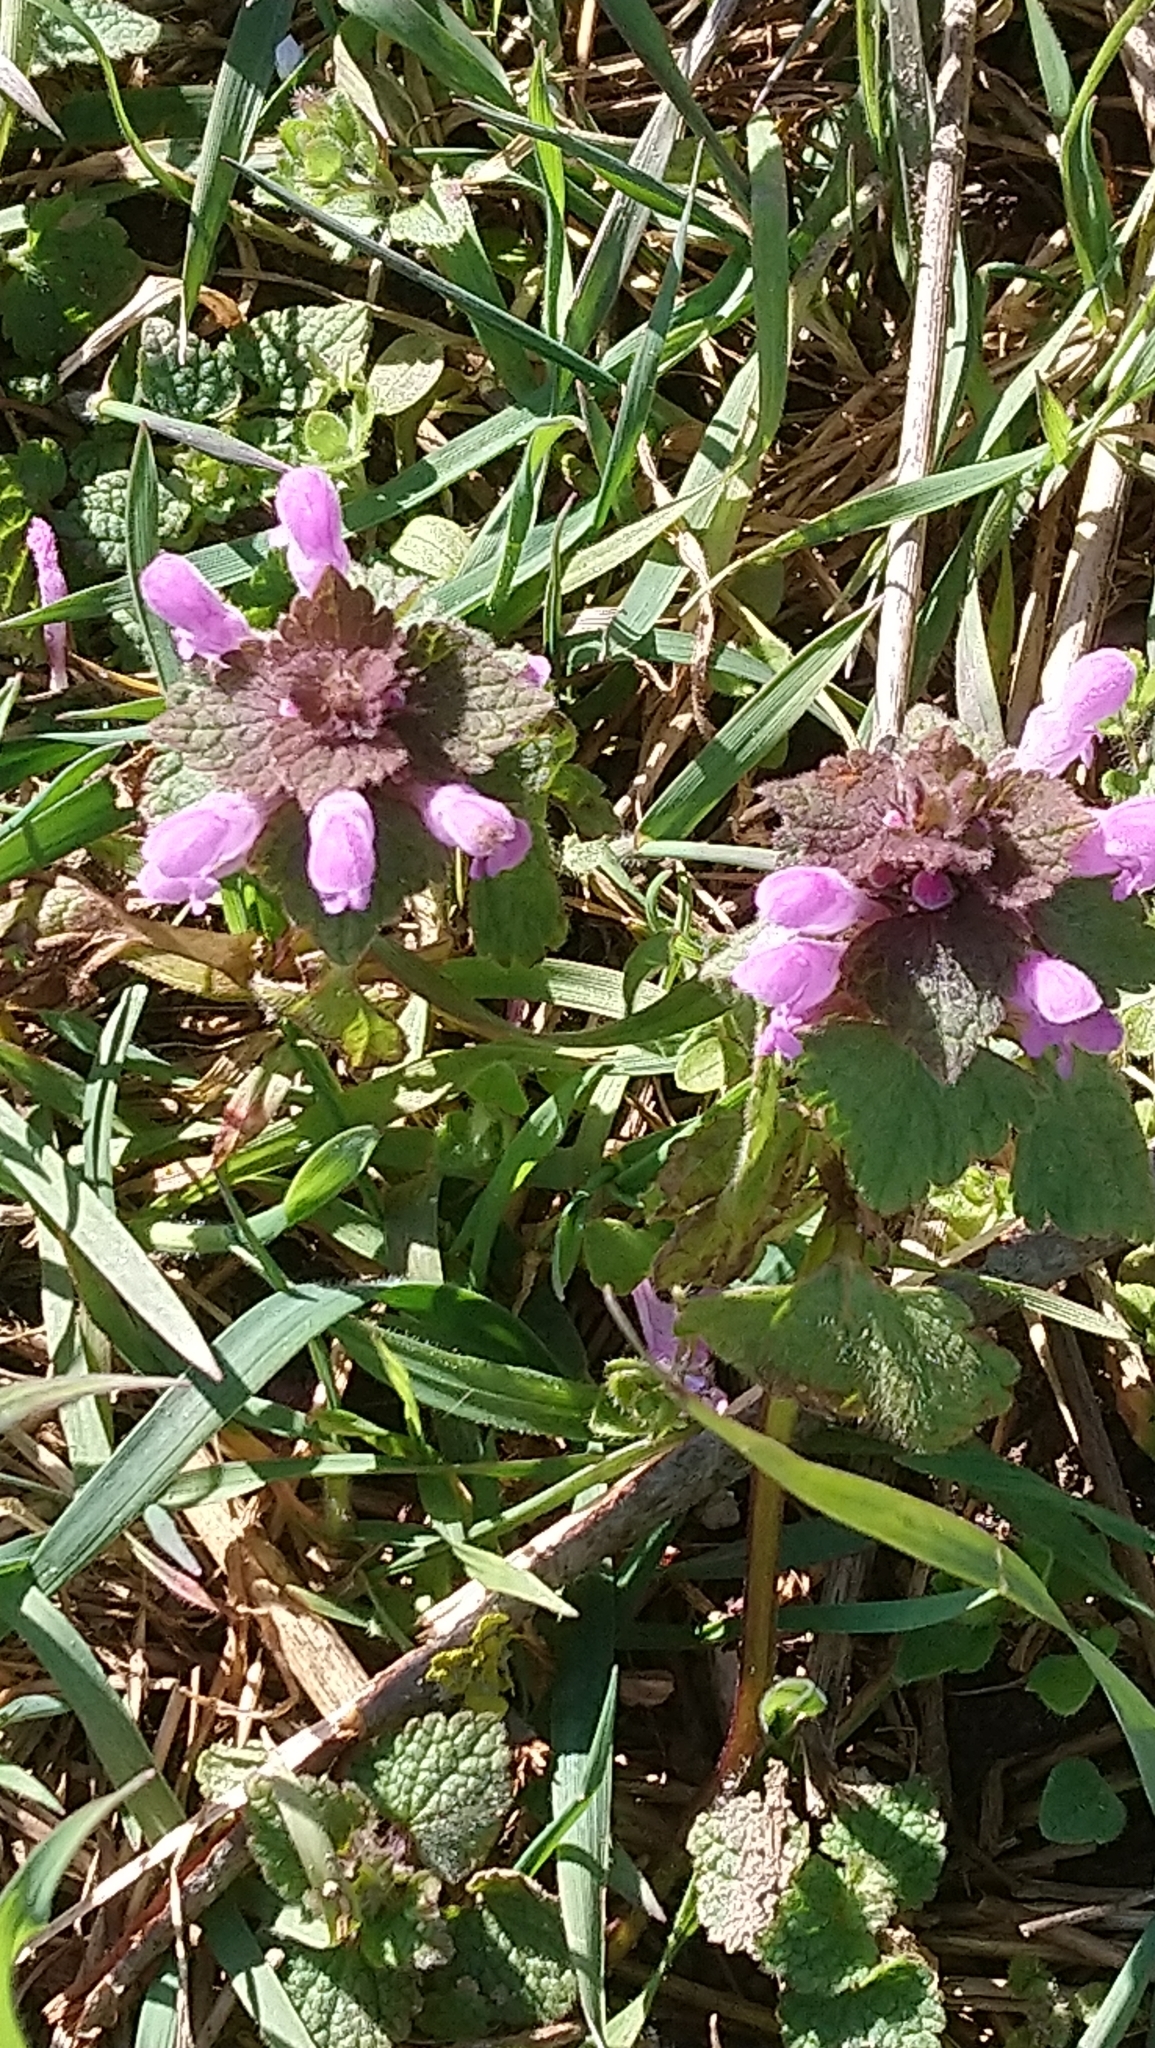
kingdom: Plantae
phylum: Tracheophyta
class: Magnoliopsida
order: Lamiales
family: Lamiaceae
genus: Lamium
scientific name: Lamium purpureum
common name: Red dead-nettle
